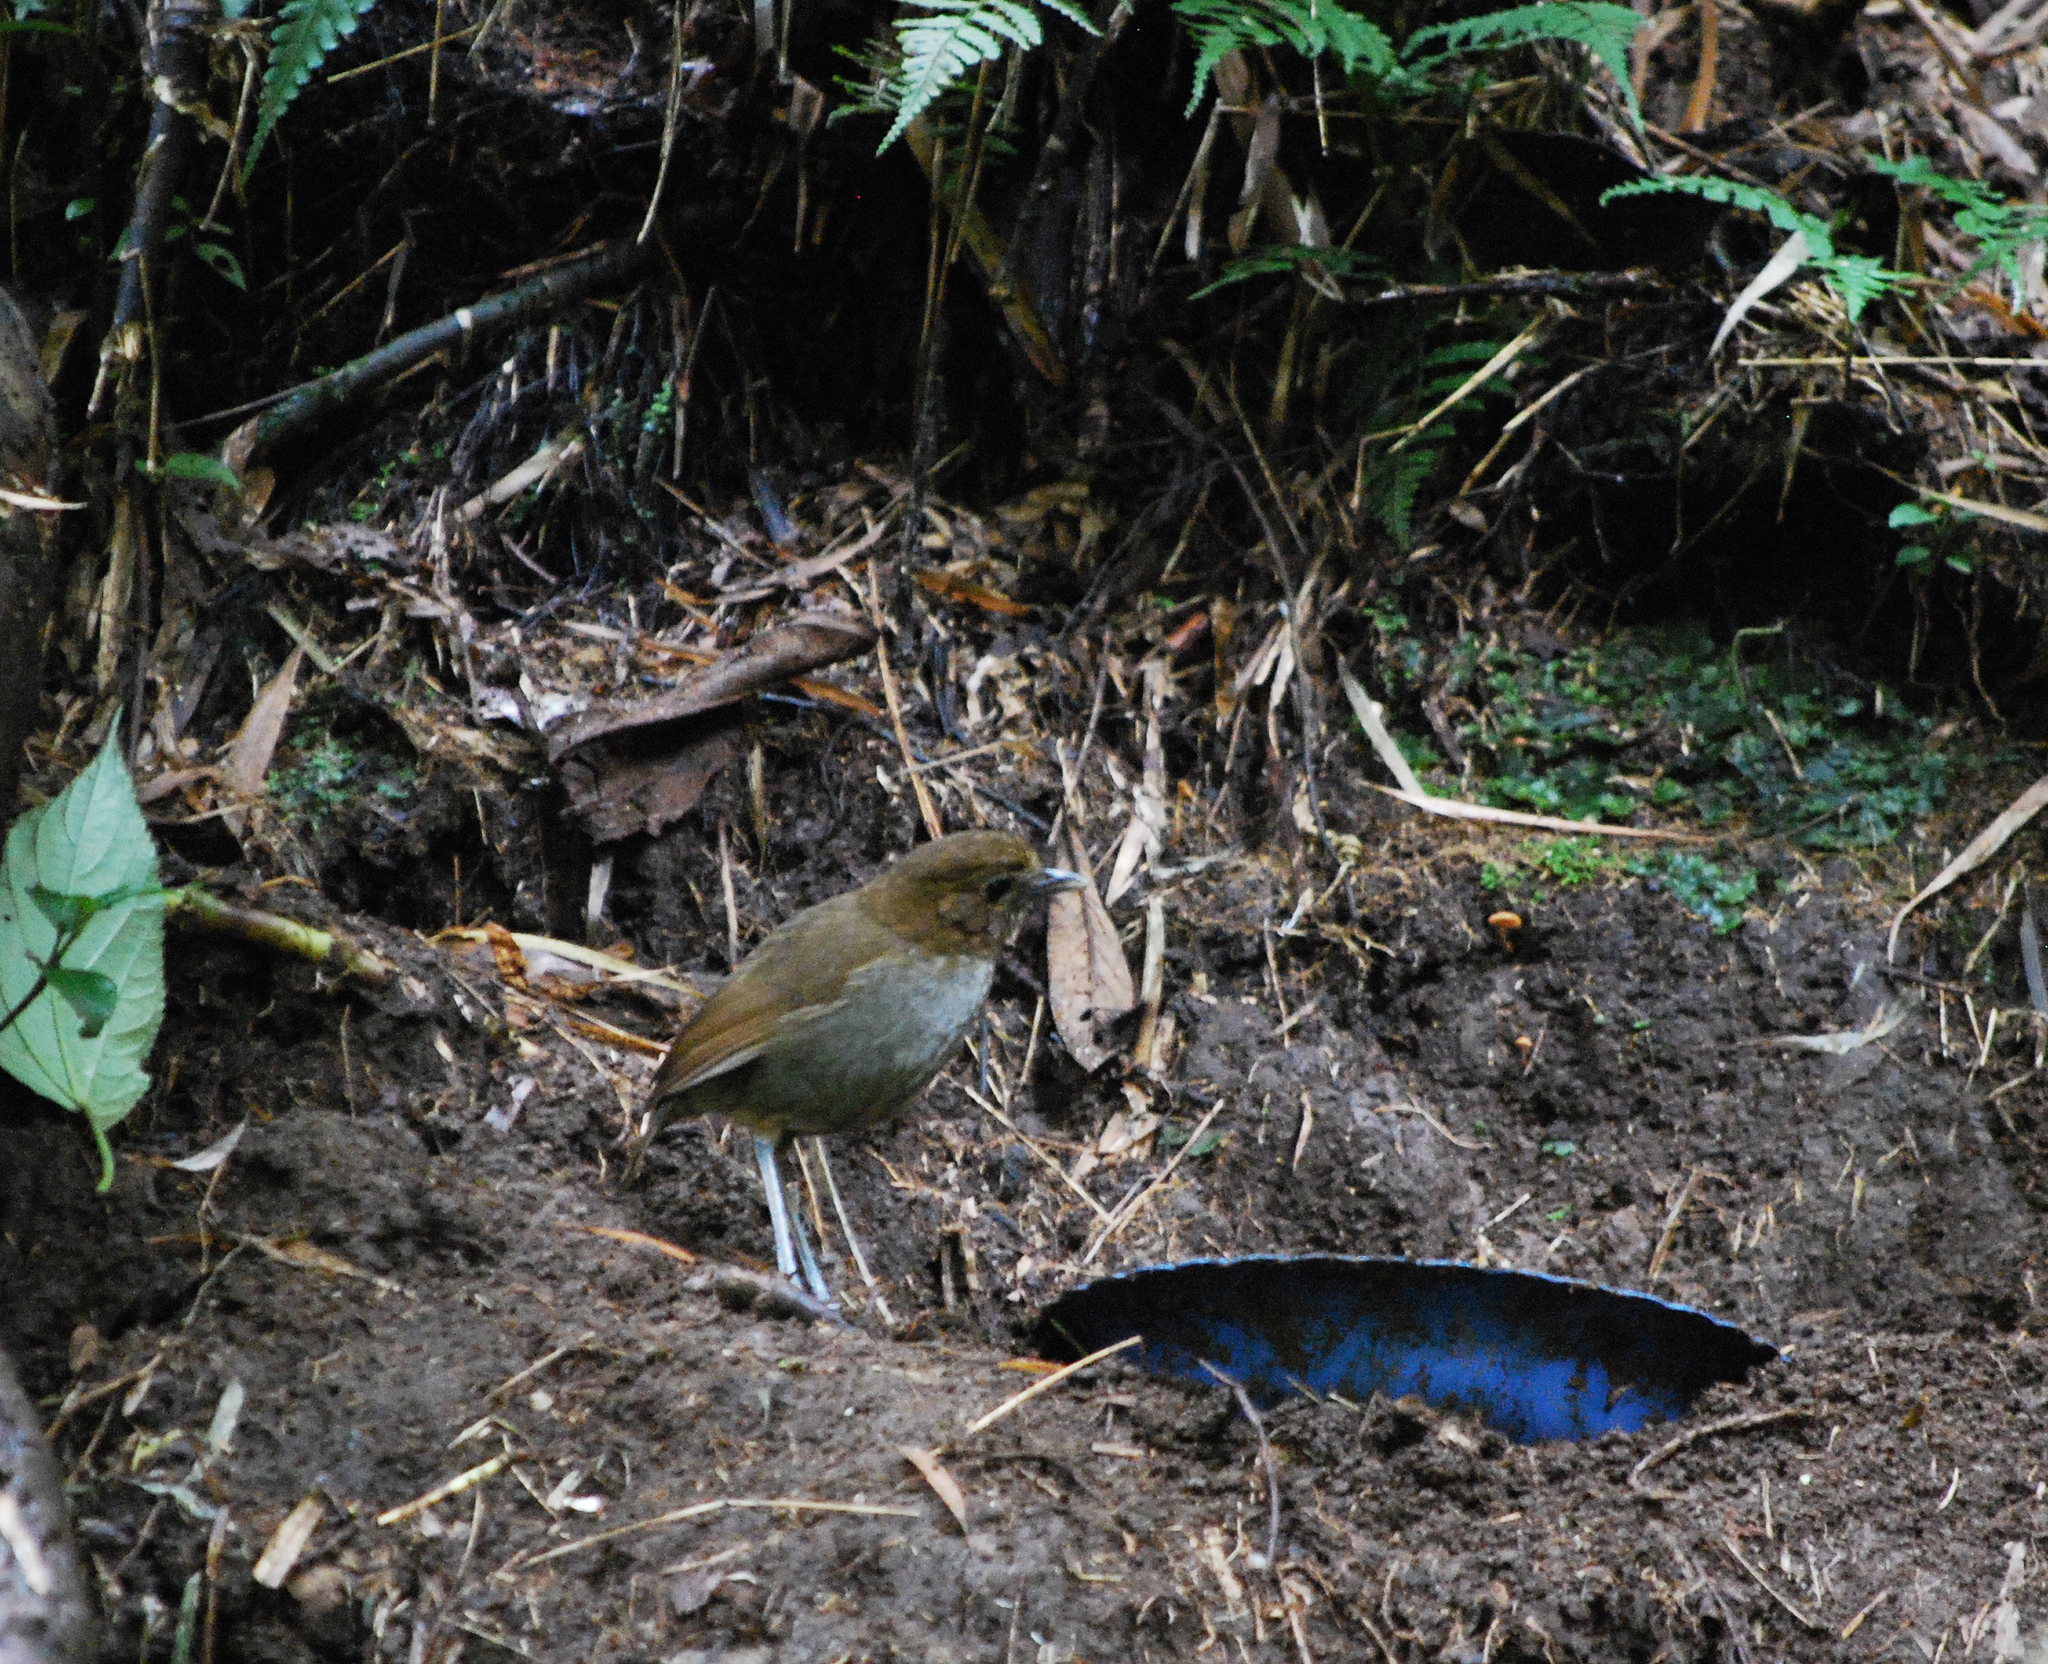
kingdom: Animalia
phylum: Chordata
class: Aves
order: Passeriformes
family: Grallariidae
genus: Grallaria
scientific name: Grallaria fenwickorum
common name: Fenwick's antpitta
